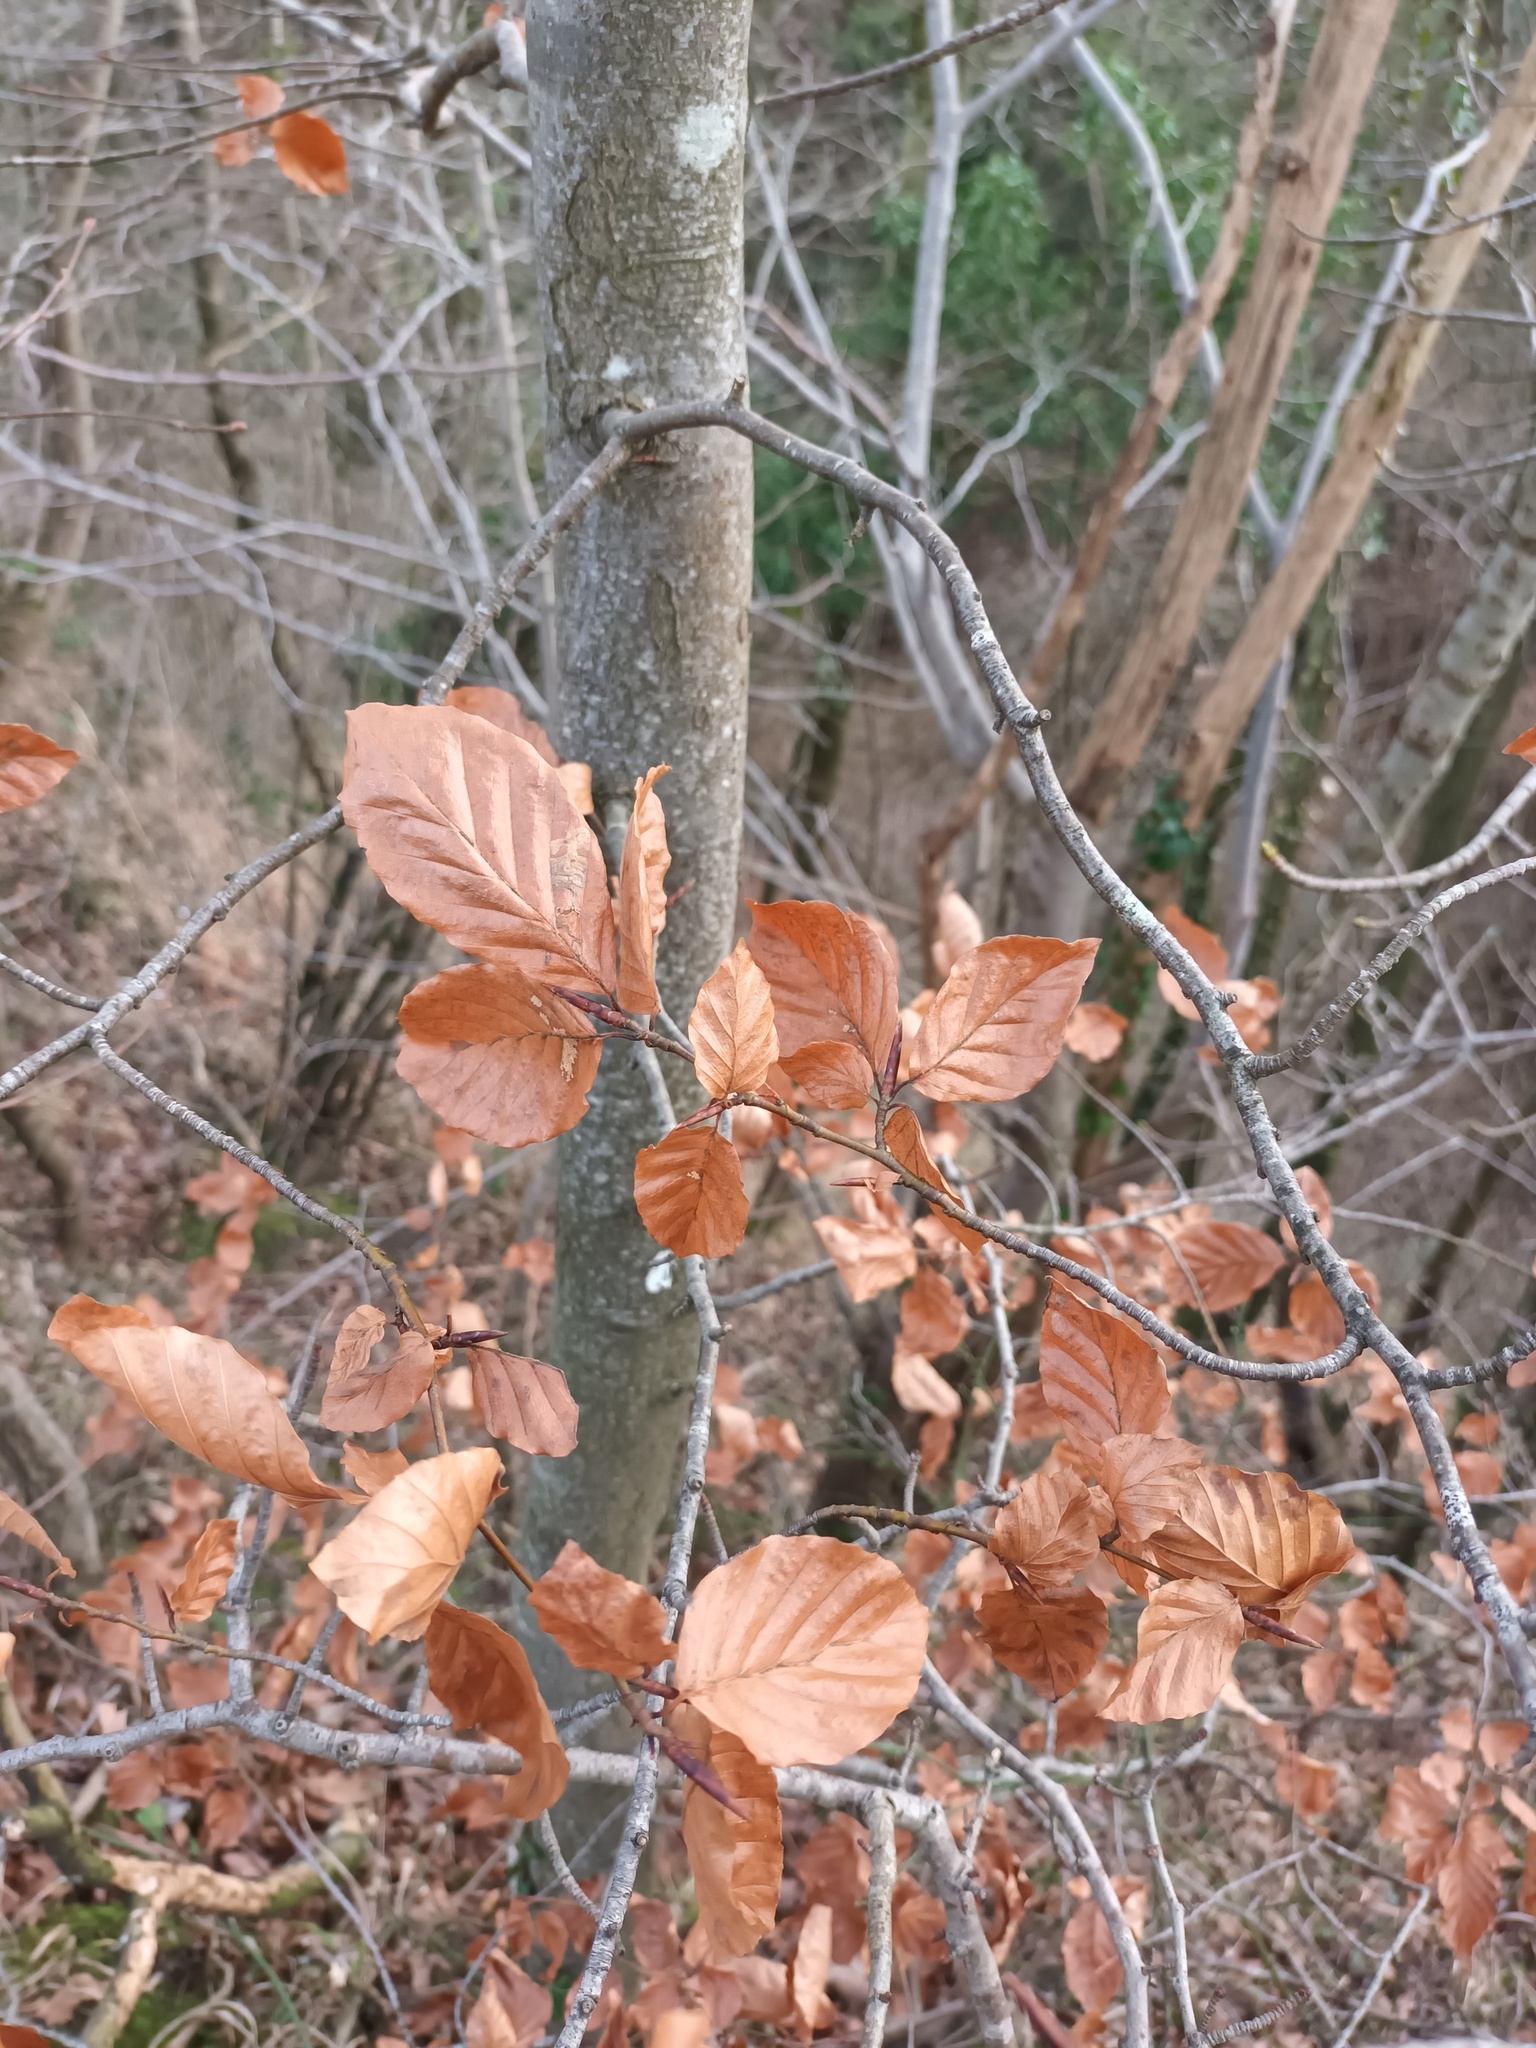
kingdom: Plantae
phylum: Tracheophyta
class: Magnoliopsida
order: Fagales
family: Fagaceae
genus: Fagus
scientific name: Fagus sylvatica
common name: Beech
